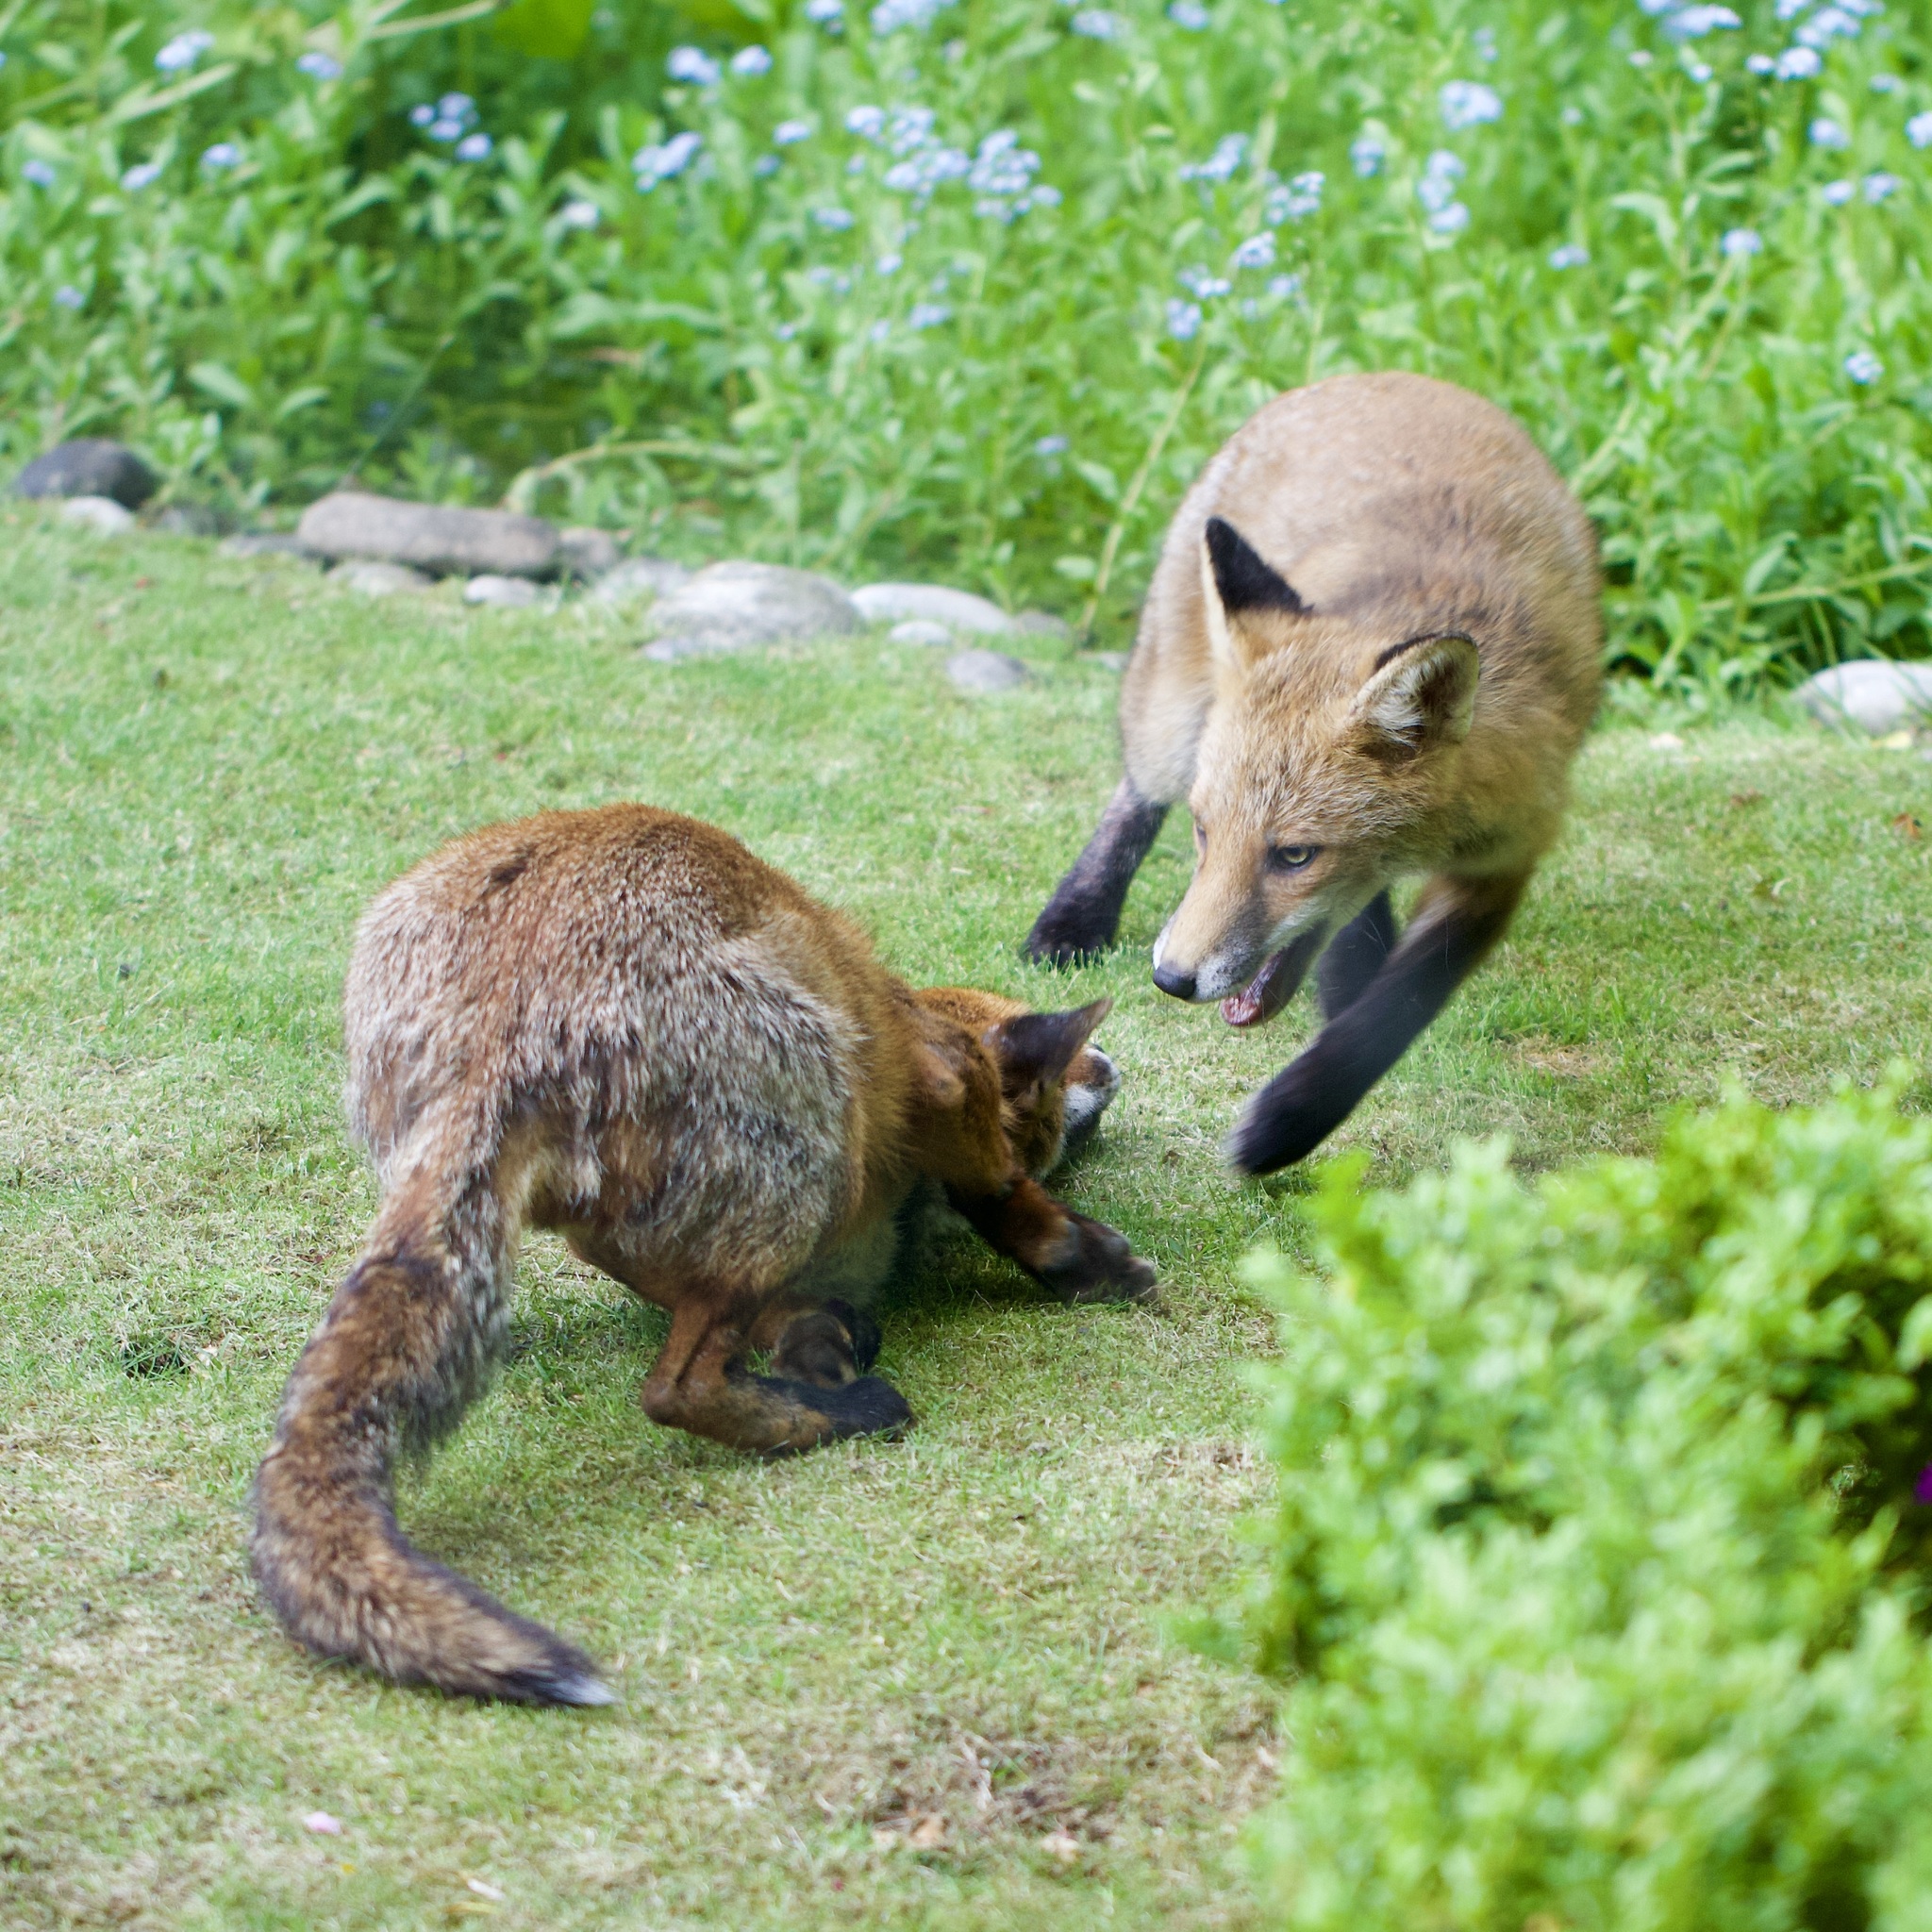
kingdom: Animalia
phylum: Chordata
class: Mammalia
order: Carnivora
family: Canidae
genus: Vulpes
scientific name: Vulpes vulpes
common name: Red fox
